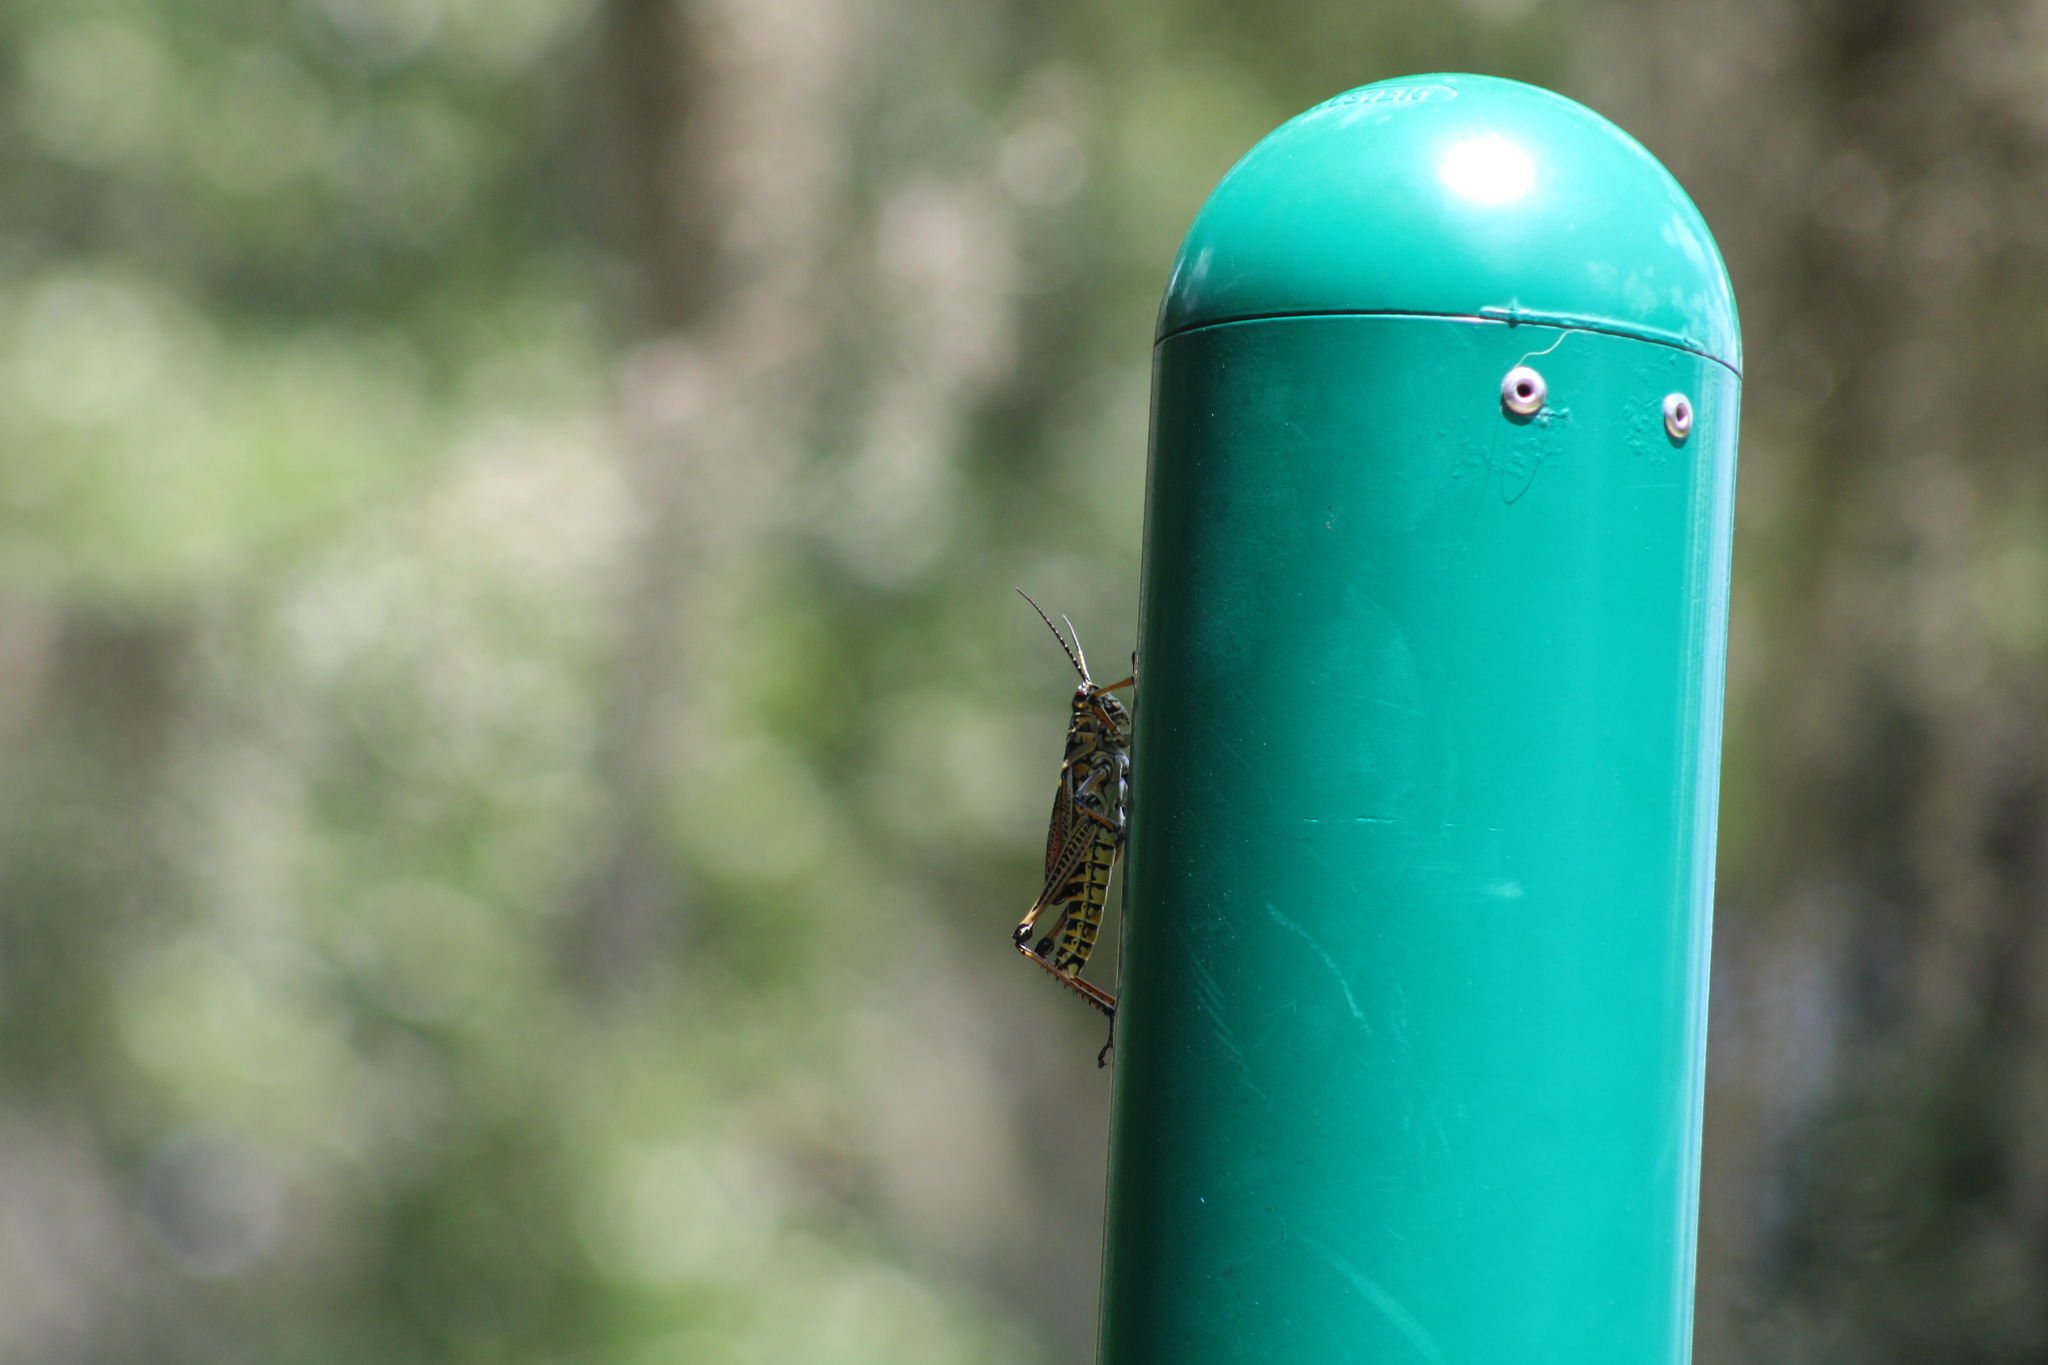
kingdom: Animalia
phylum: Arthropoda
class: Insecta
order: Orthoptera
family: Romaleidae
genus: Romalea
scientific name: Romalea microptera
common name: Eastern lubber grasshopper
